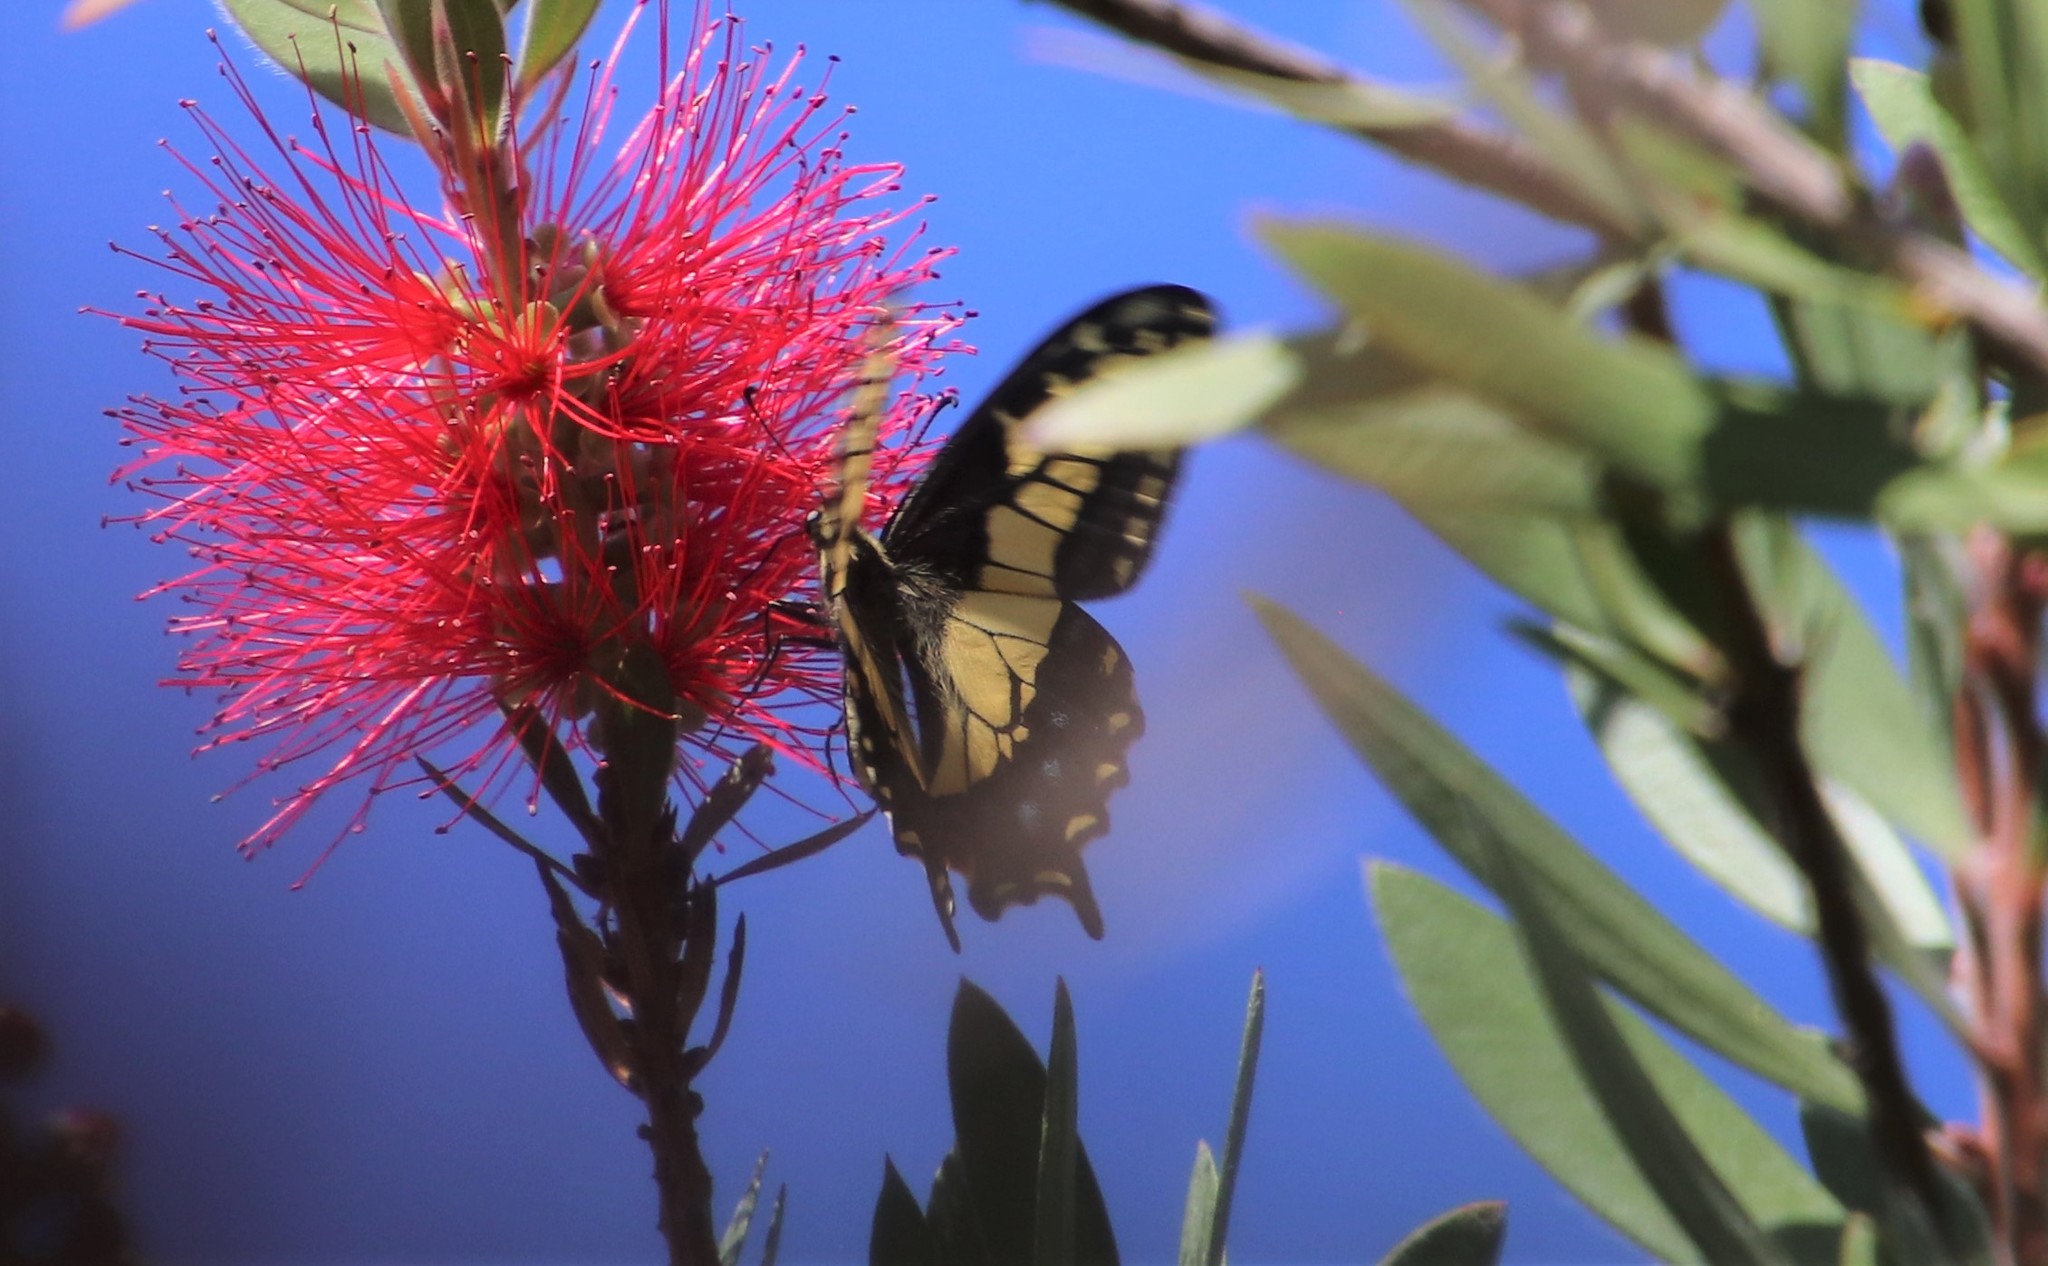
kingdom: Animalia
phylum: Arthropoda
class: Insecta
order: Lepidoptera
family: Papilionidae
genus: Papilio
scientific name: Papilio zelicaon
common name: Anise swallowtail
